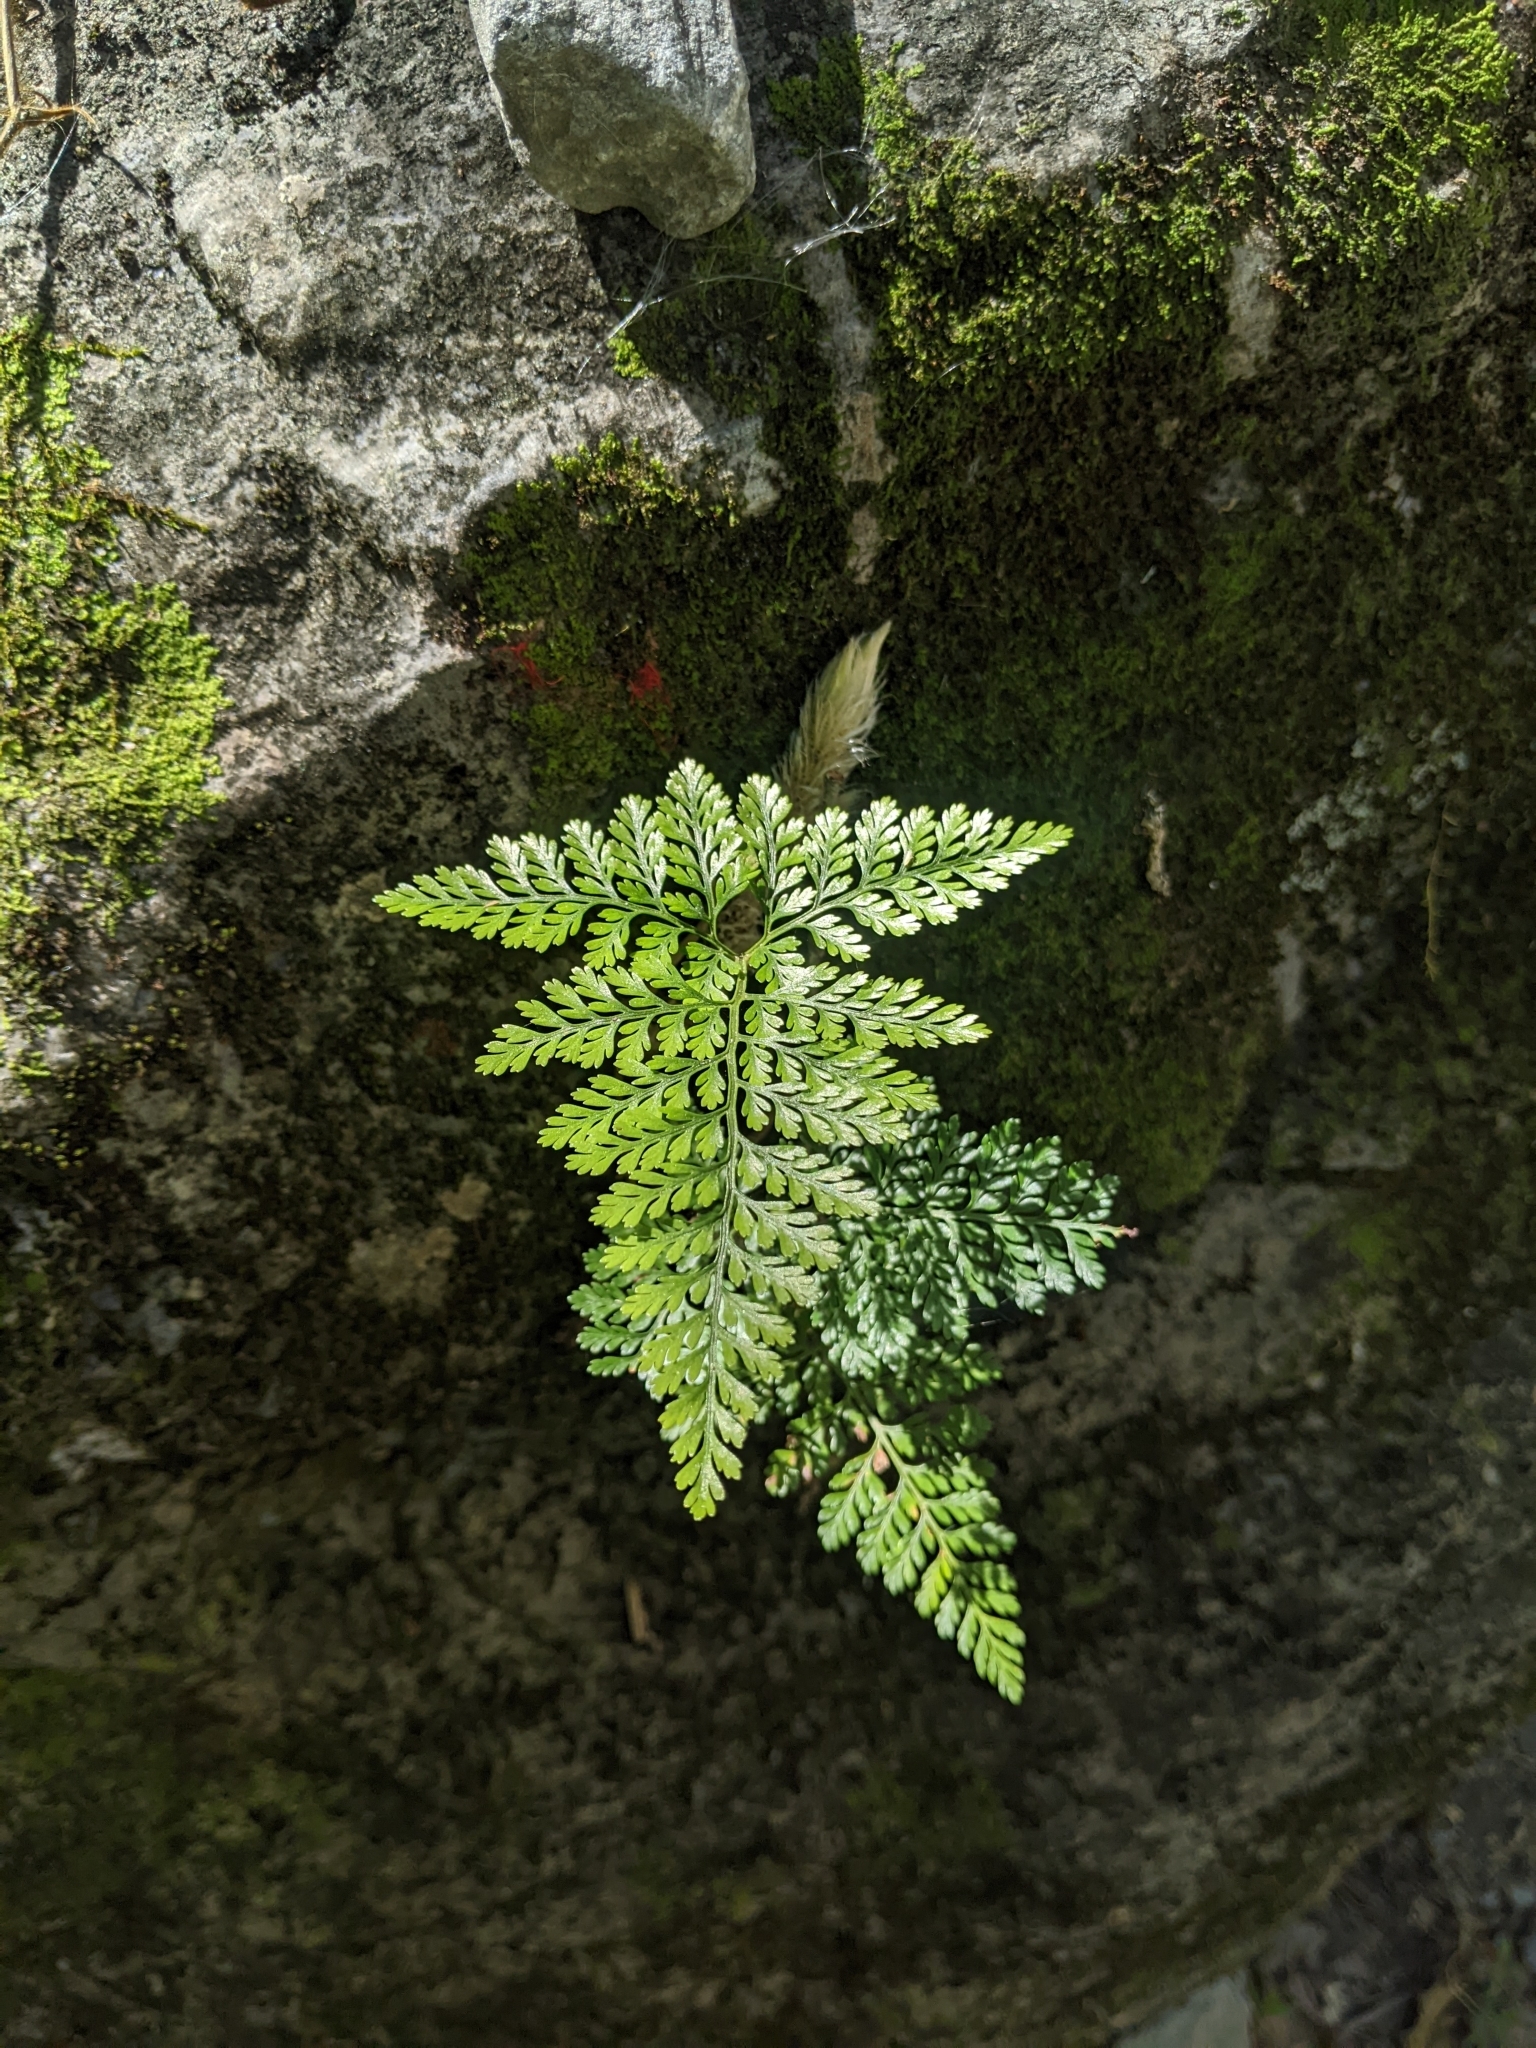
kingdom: Plantae
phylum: Tracheophyta
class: Polypodiopsida
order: Polypodiales
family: Davalliaceae
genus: Davallia
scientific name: Davallia griffithiana
